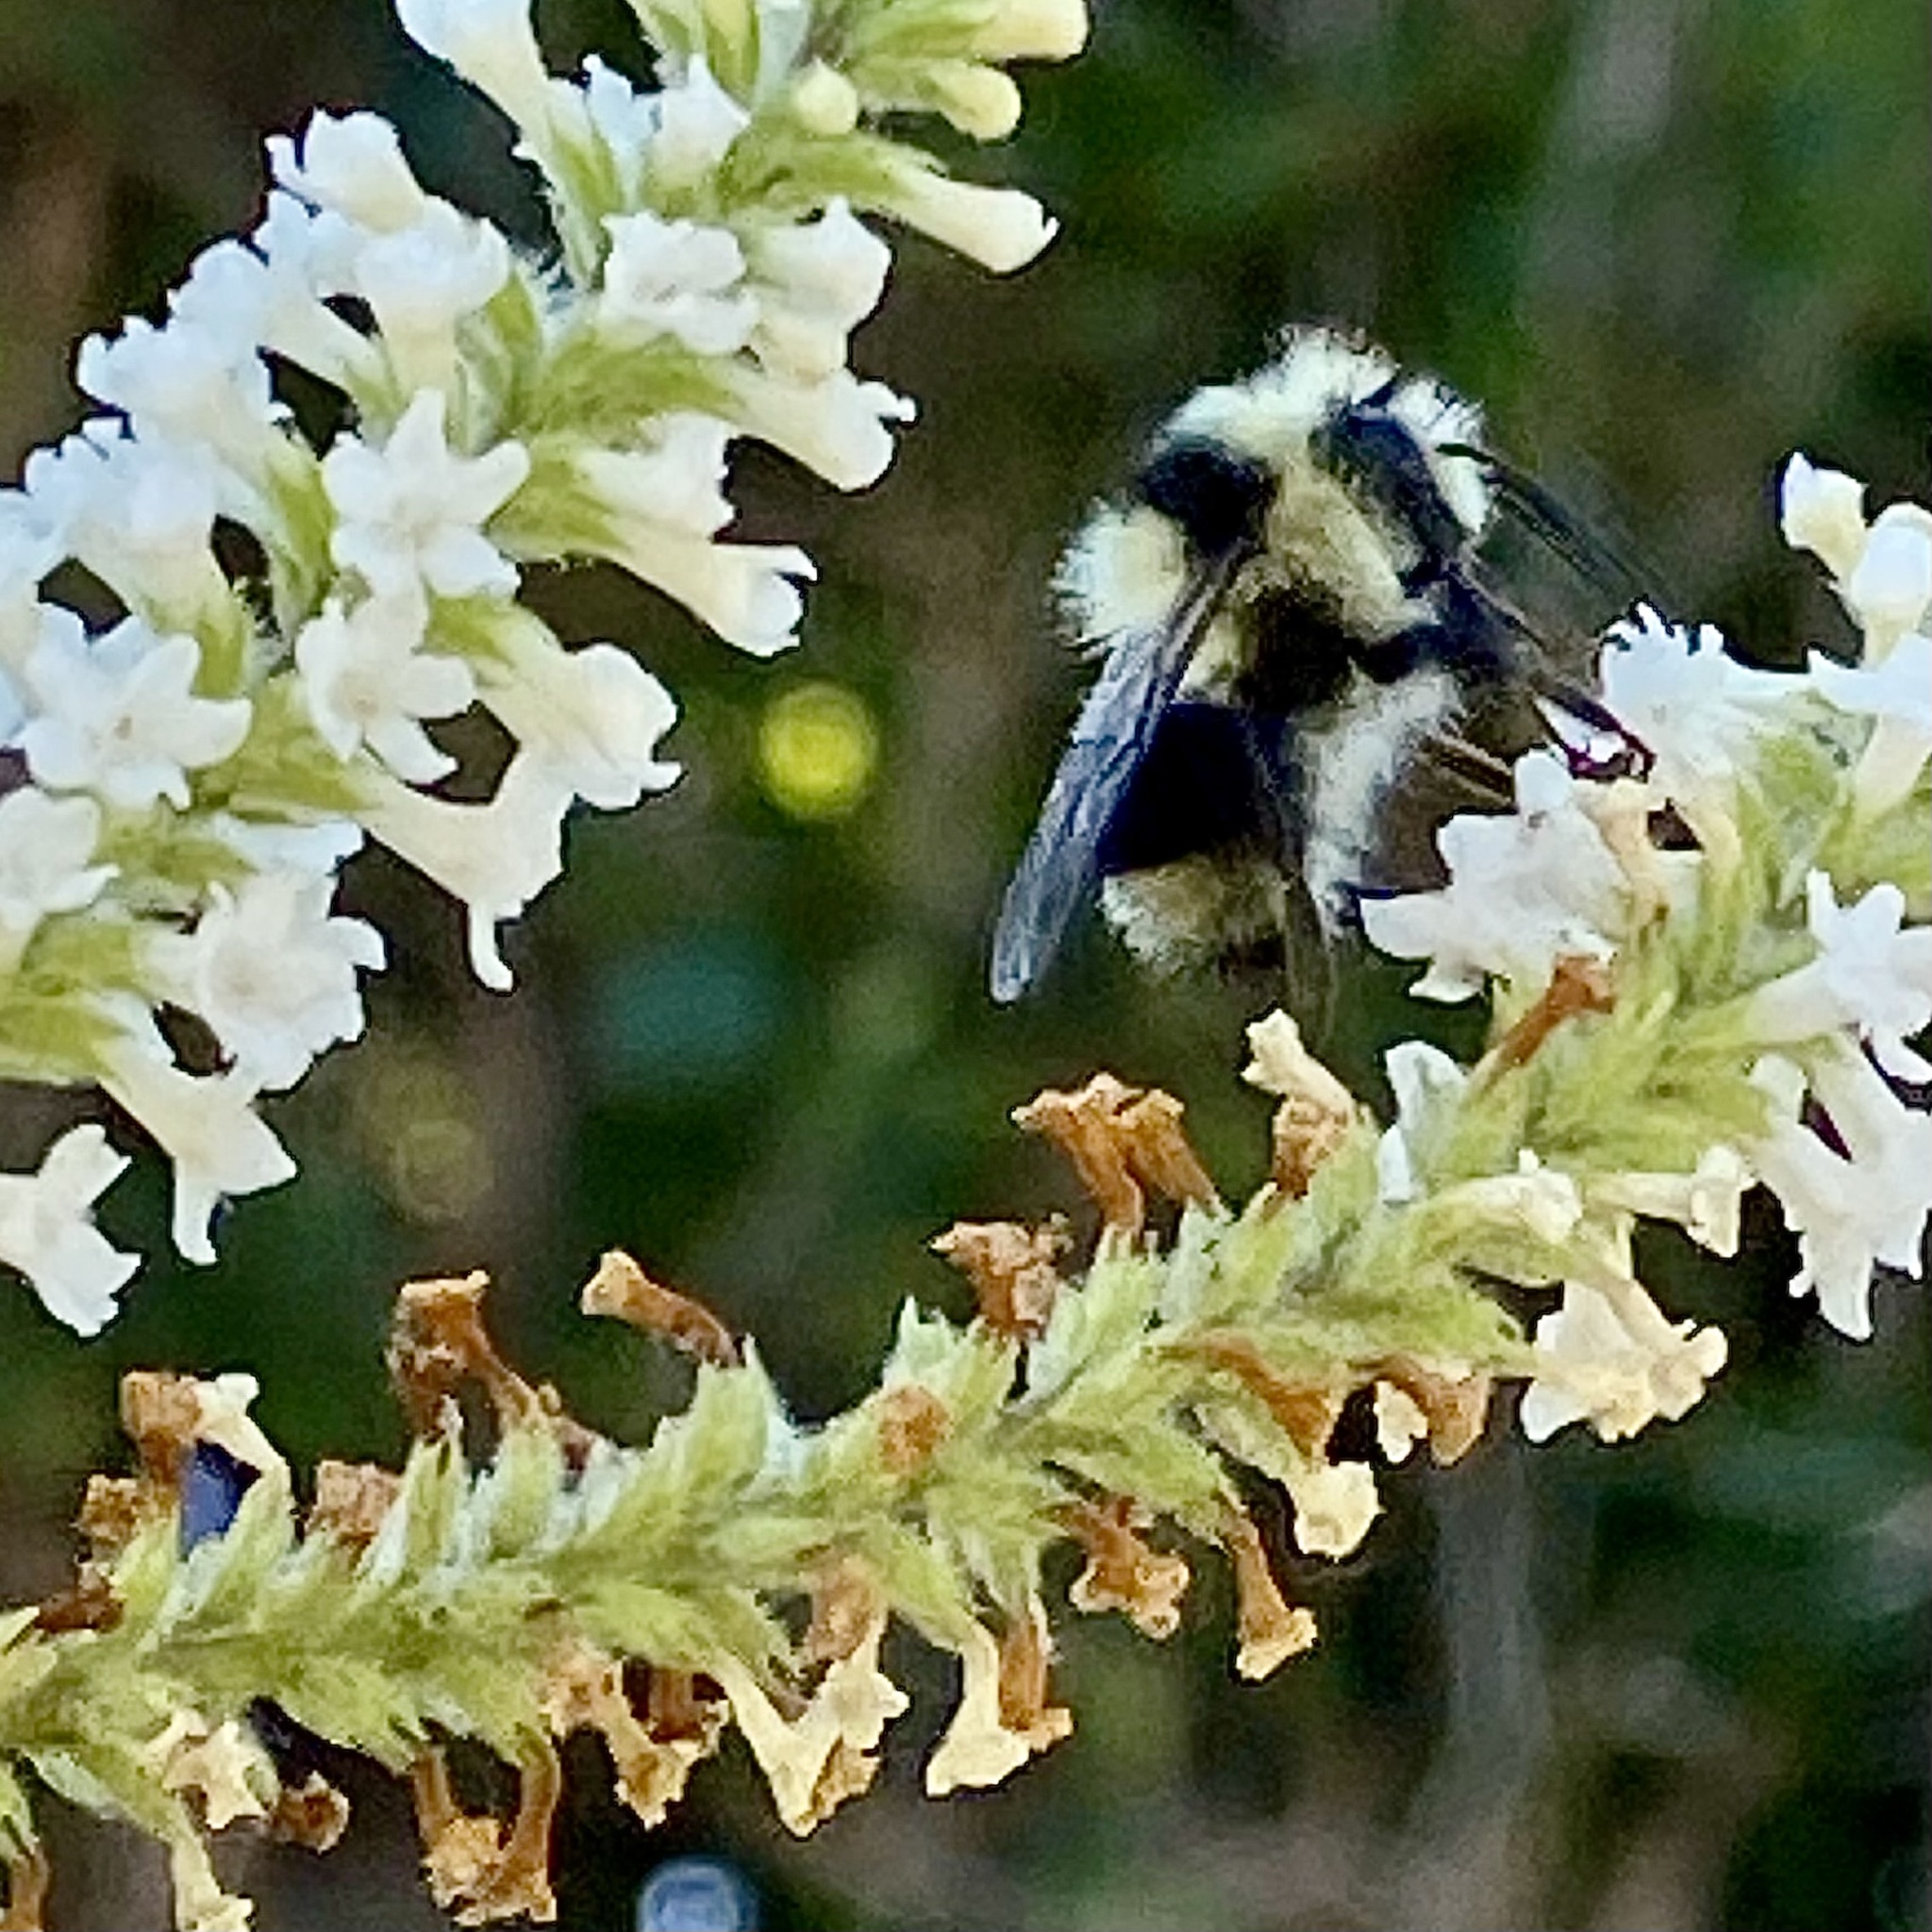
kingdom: Animalia
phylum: Arthropoda
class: Insecta
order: Hymenoptera
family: Apidae
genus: Bombus
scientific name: Bombus melanopygus
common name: Black tail bumble bee
